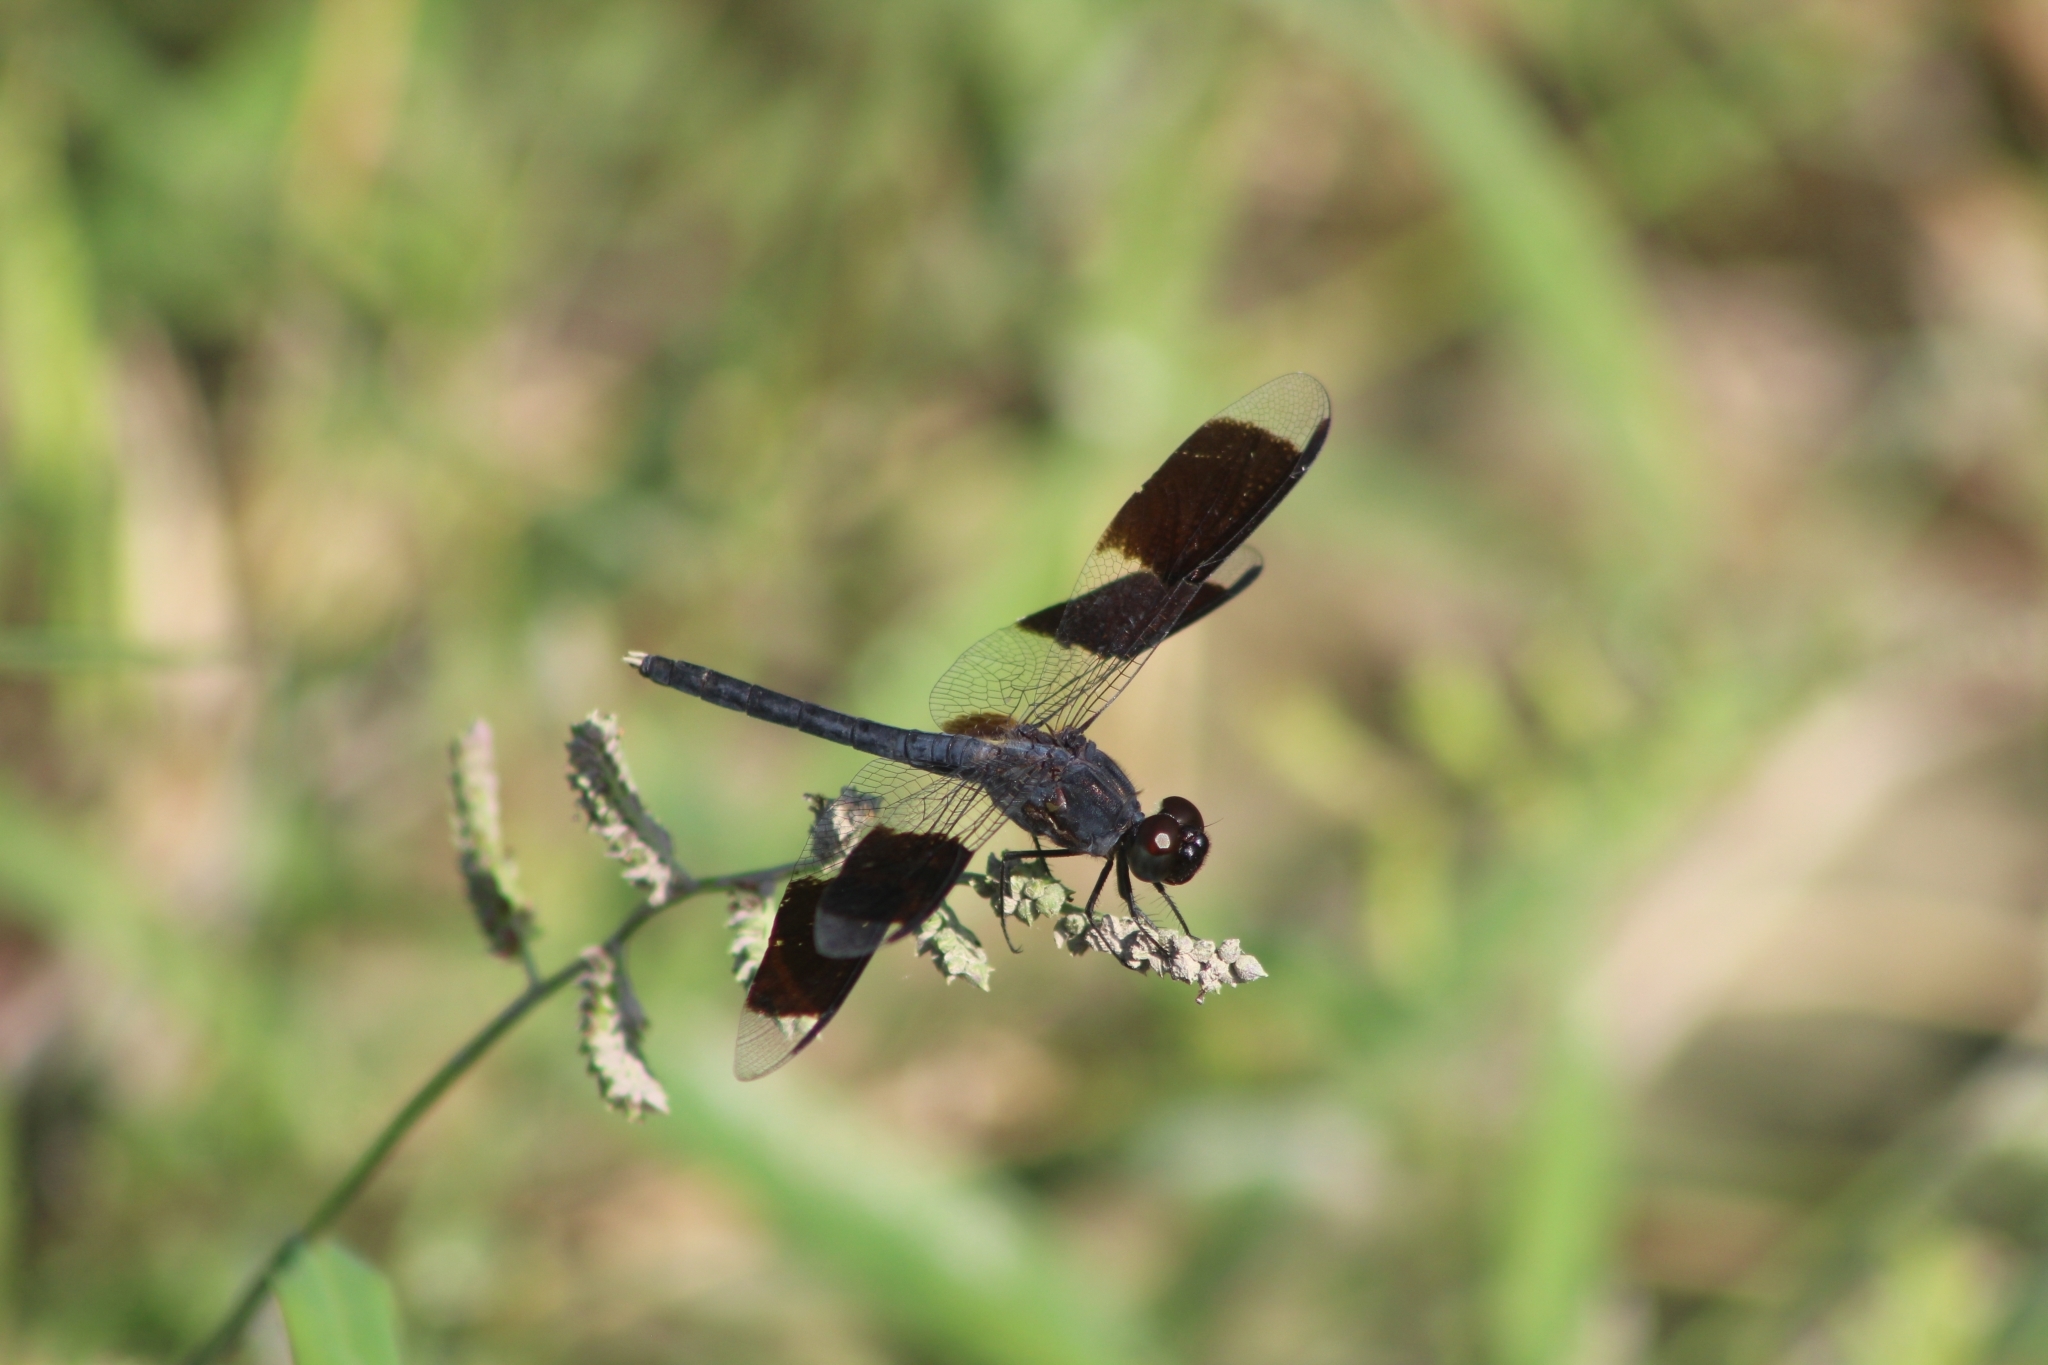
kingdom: Animalia
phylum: Arthropoda
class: Insecta
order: Odonata
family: Libellulidae
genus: Erythrodiplax
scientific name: Erythrodiplax umbrata
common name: Band-winged dragonlet
